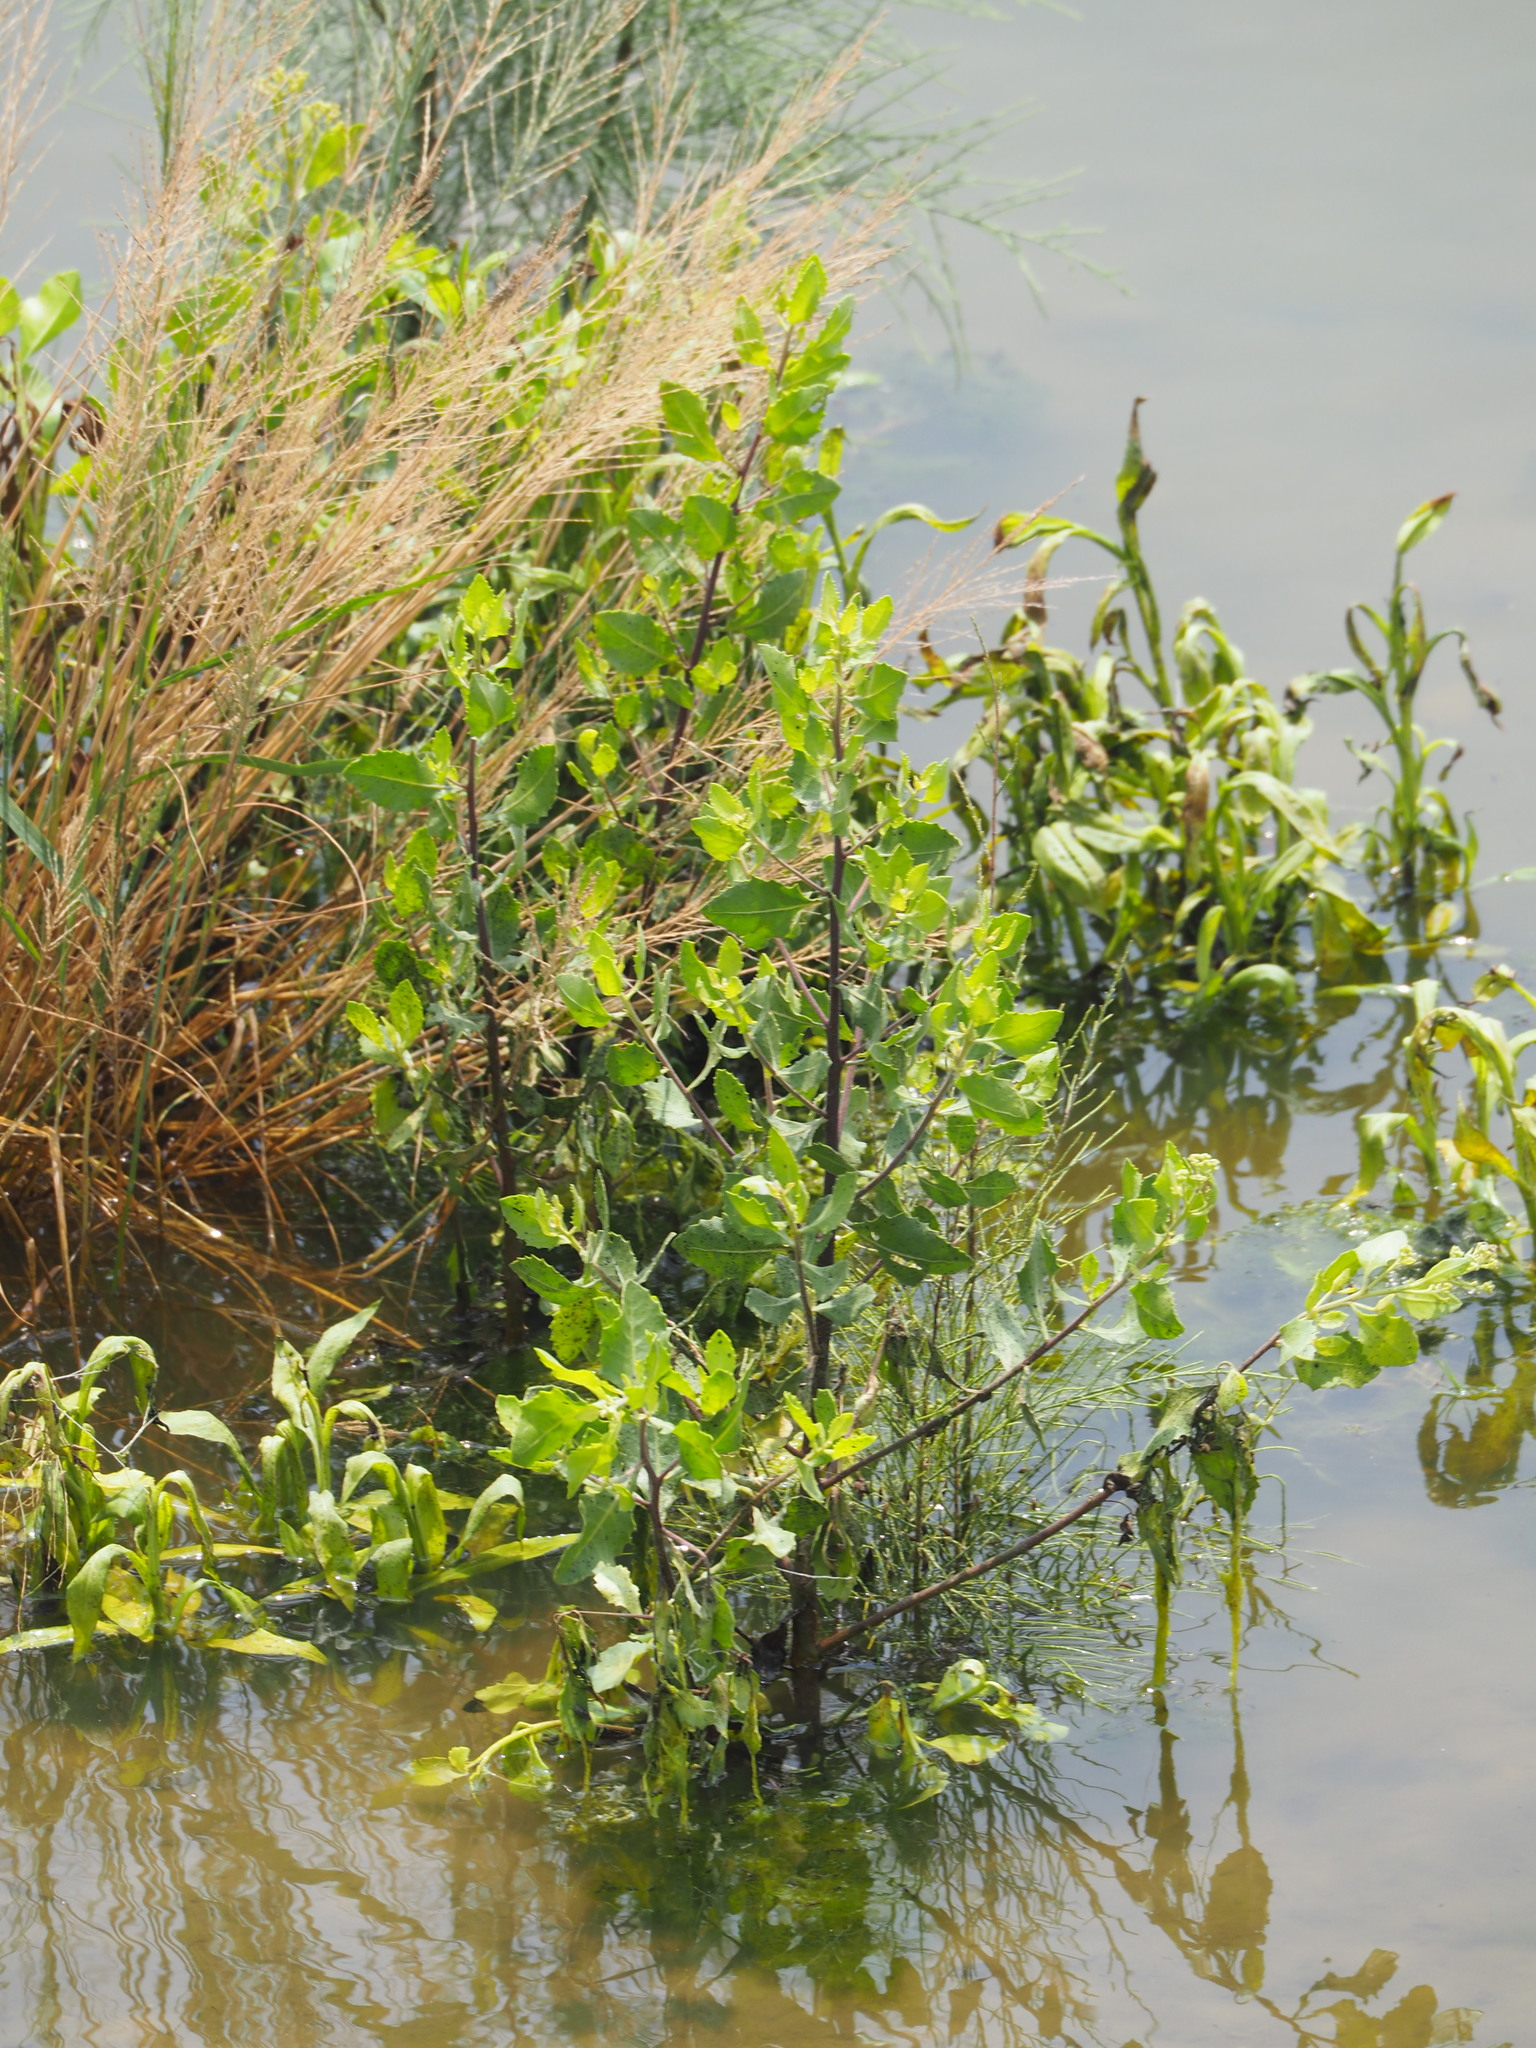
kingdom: Plantae
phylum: Tracheophyta
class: Magnoliopsida
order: Asterales
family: Asteraceae
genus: Pluchea
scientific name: Pluchea indica
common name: Indian fleabane
